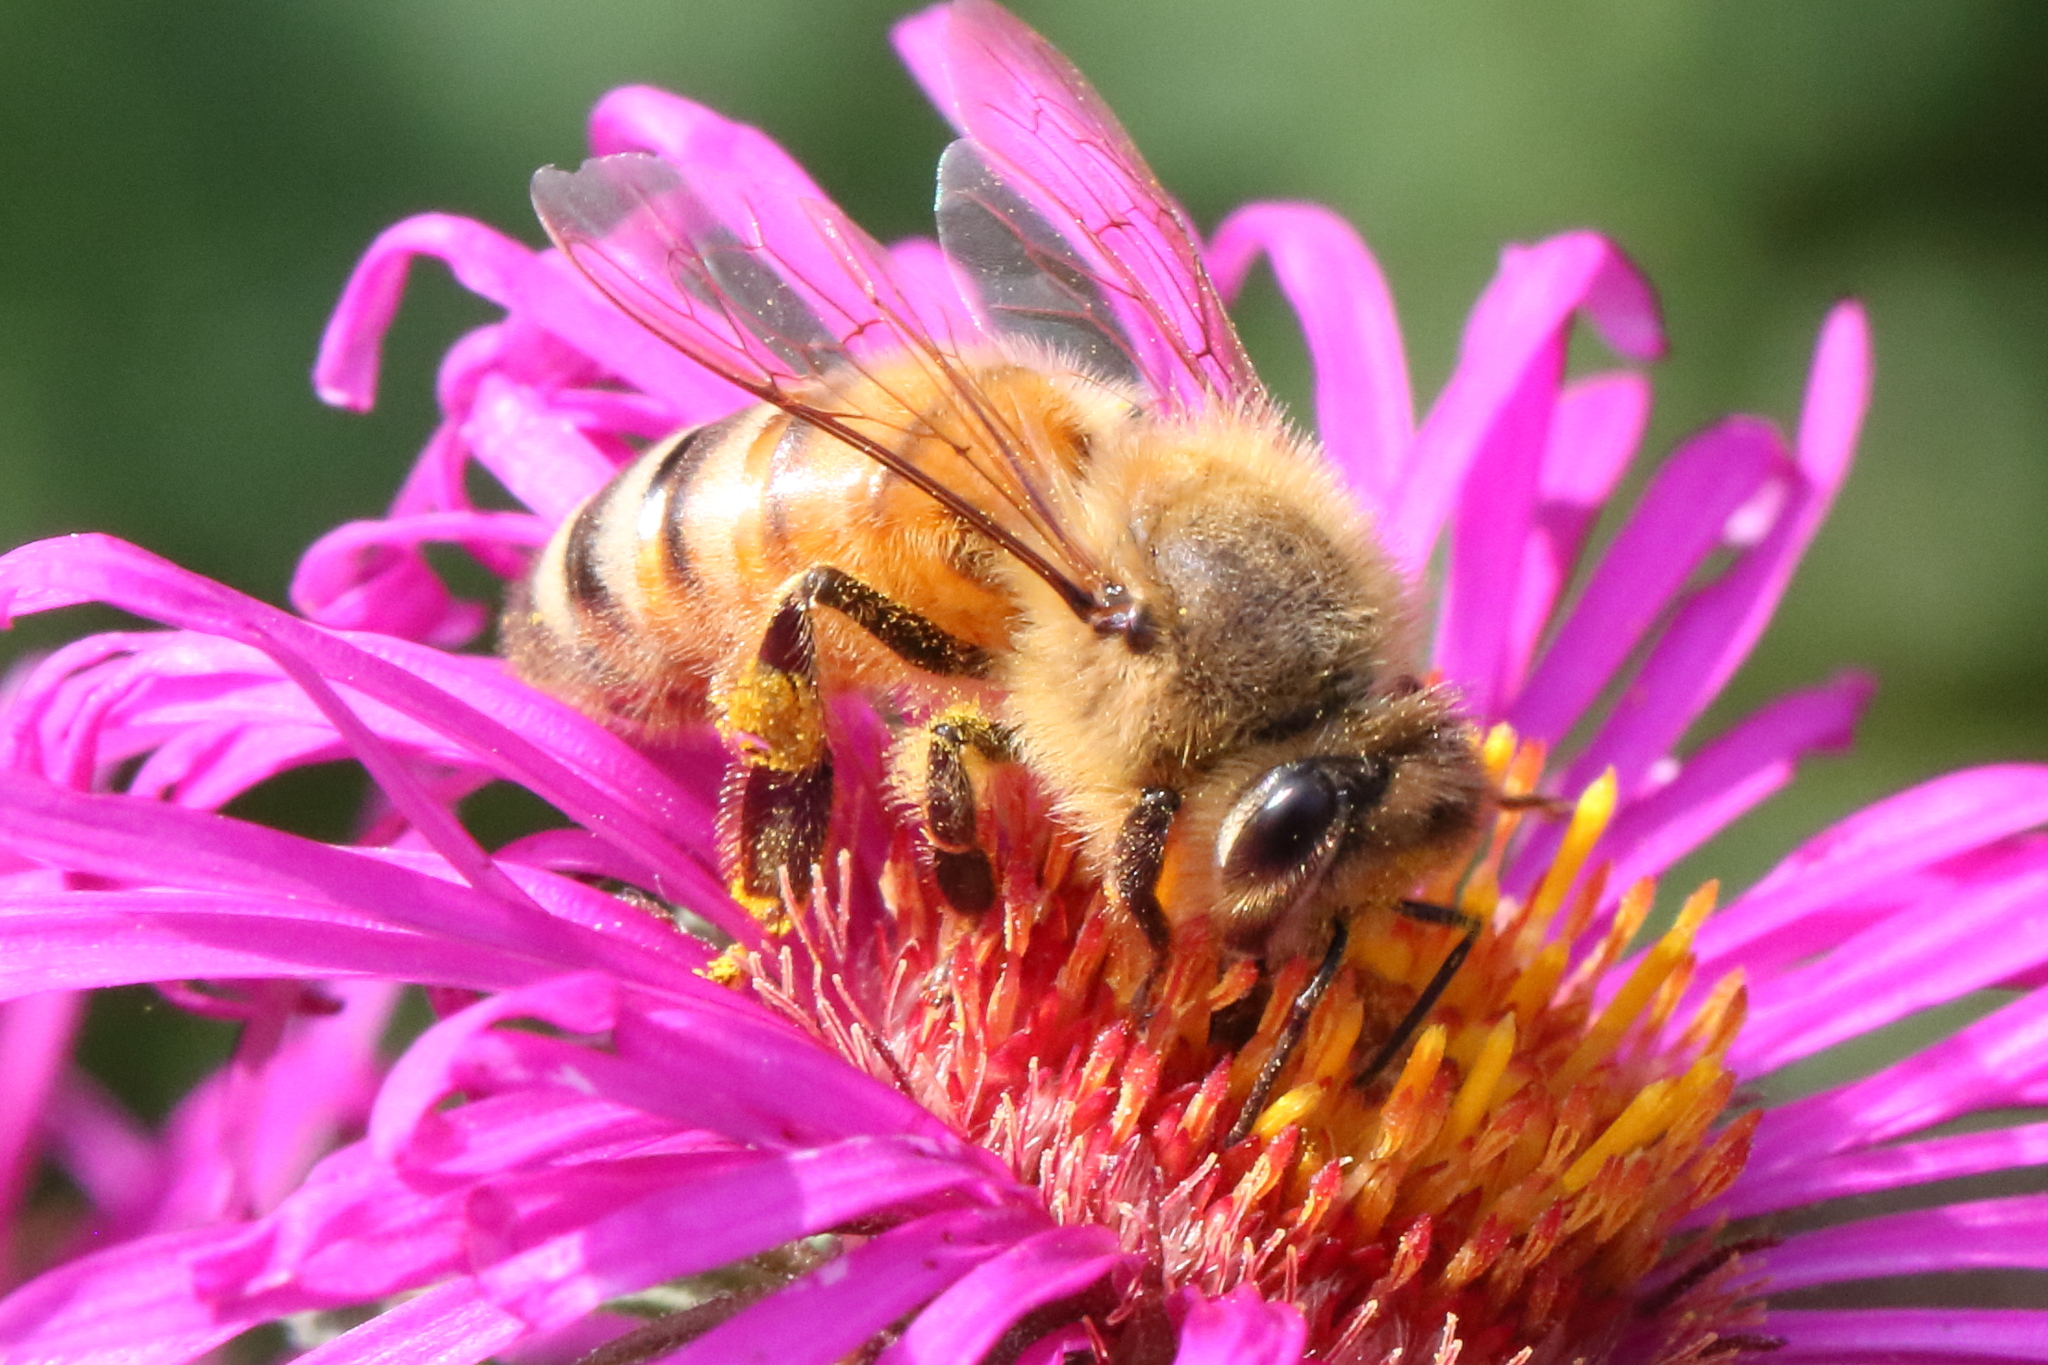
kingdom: Animalia
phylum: Arthropoda
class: Insecta
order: Hymenoptera
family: Apidae
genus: Apis
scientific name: Apis mellifera
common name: Honey bee
